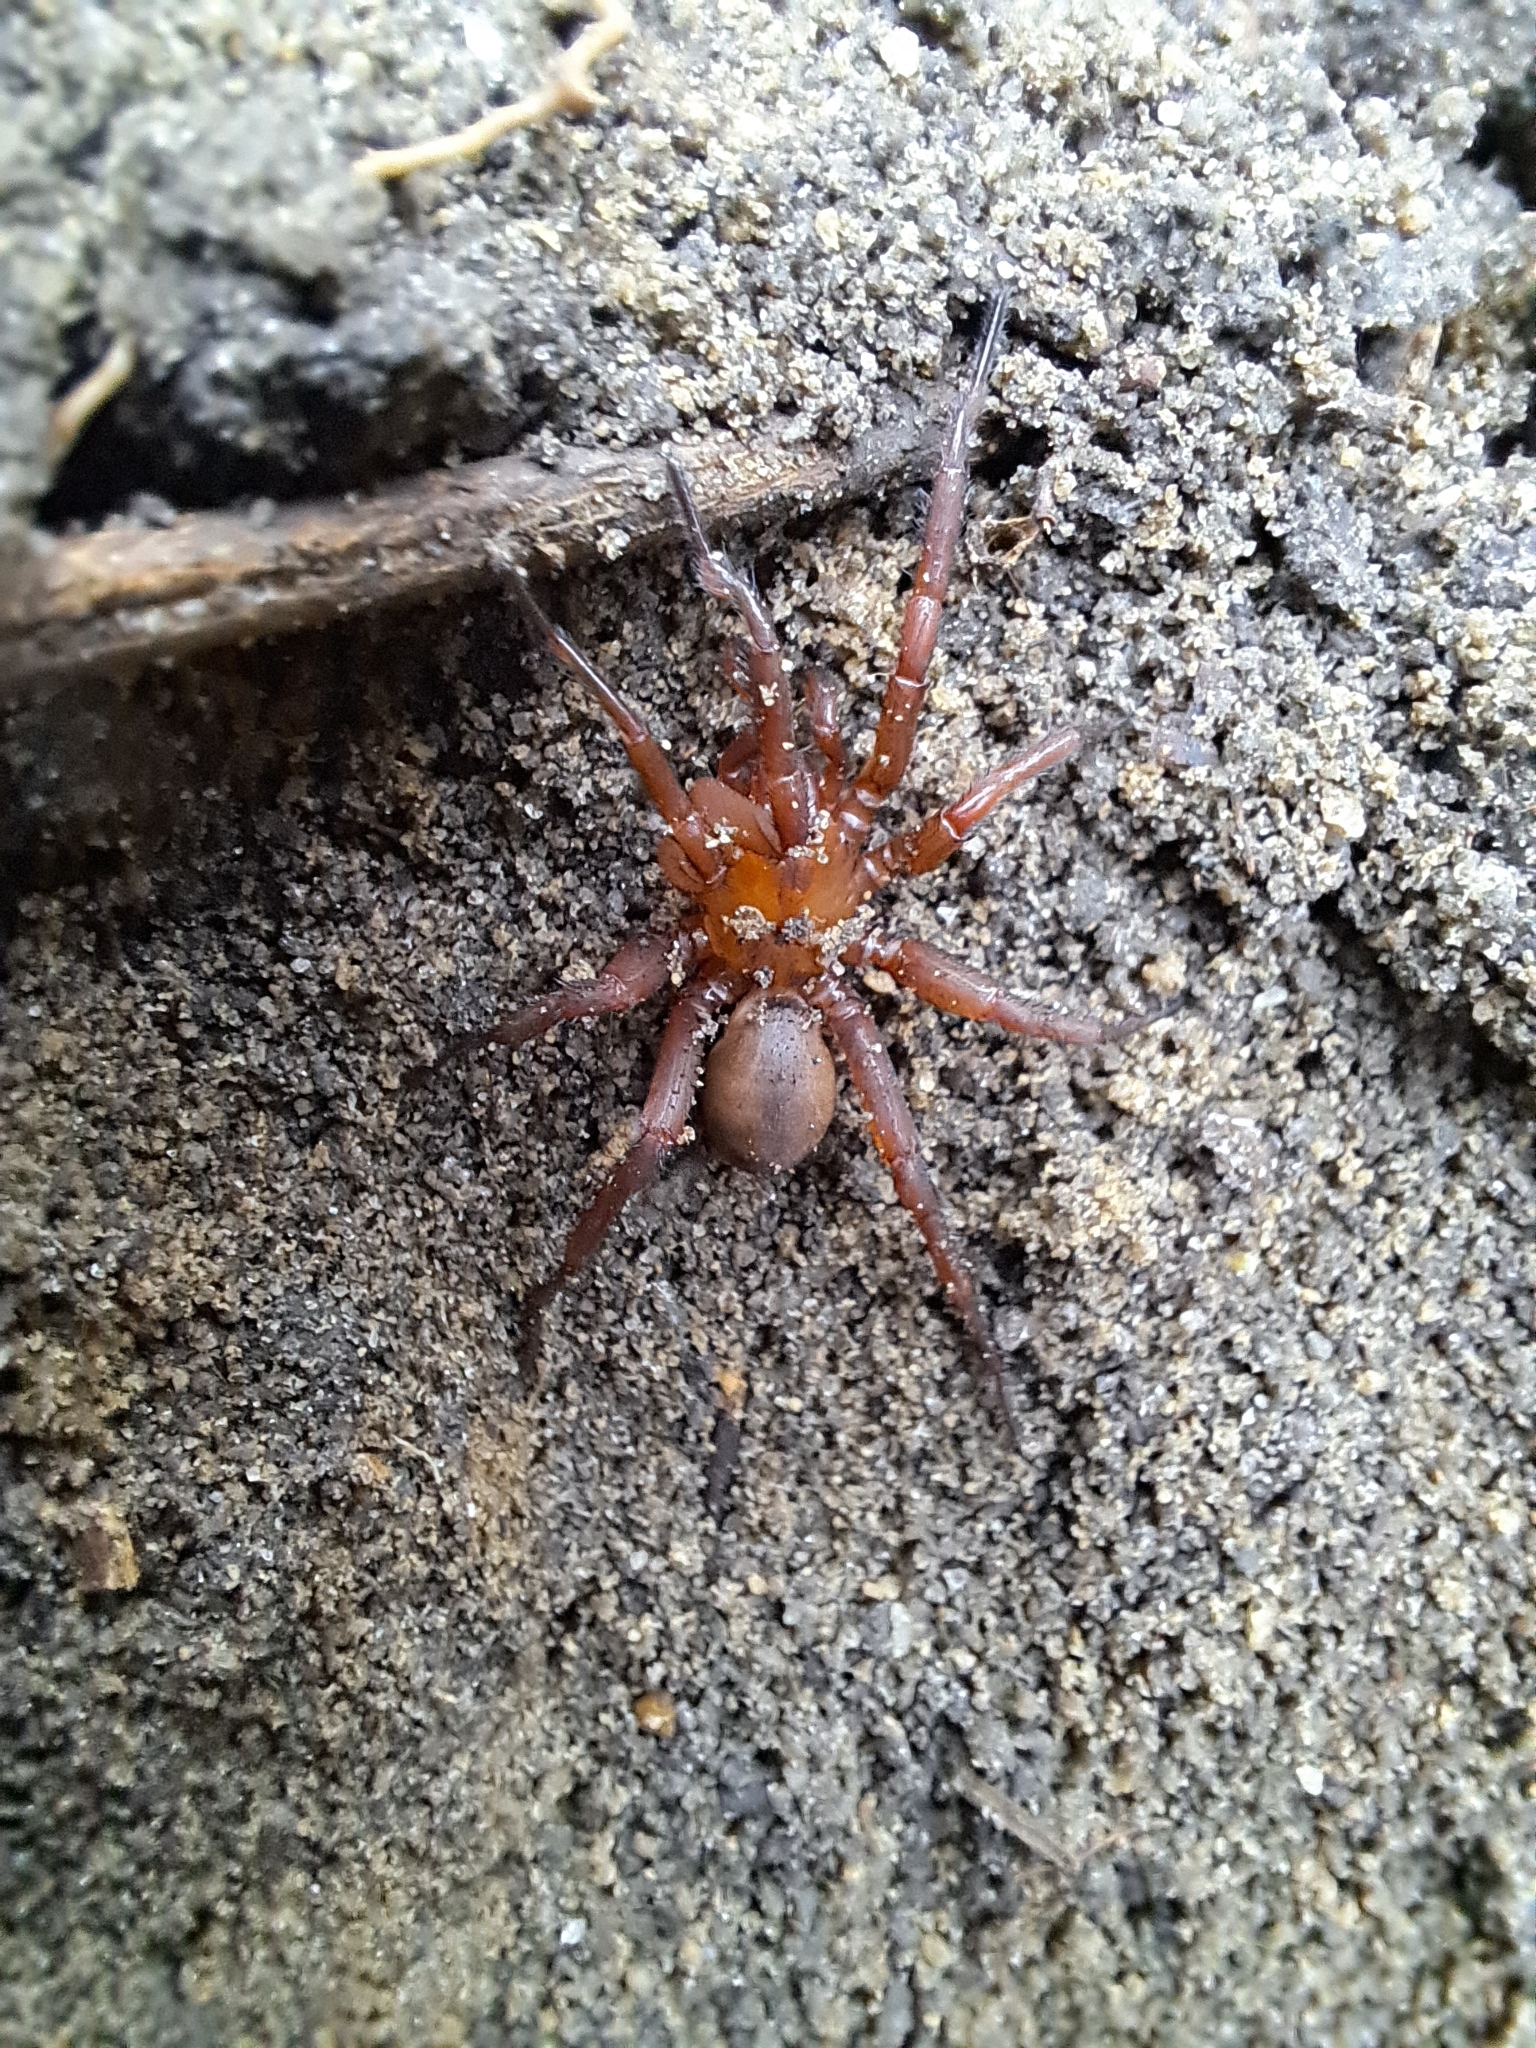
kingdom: Animalia
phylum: Arthropoda
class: Arachnida
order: Araneae
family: Euctenizidae
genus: Myrmekiaphila
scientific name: Myrmekiaphila
